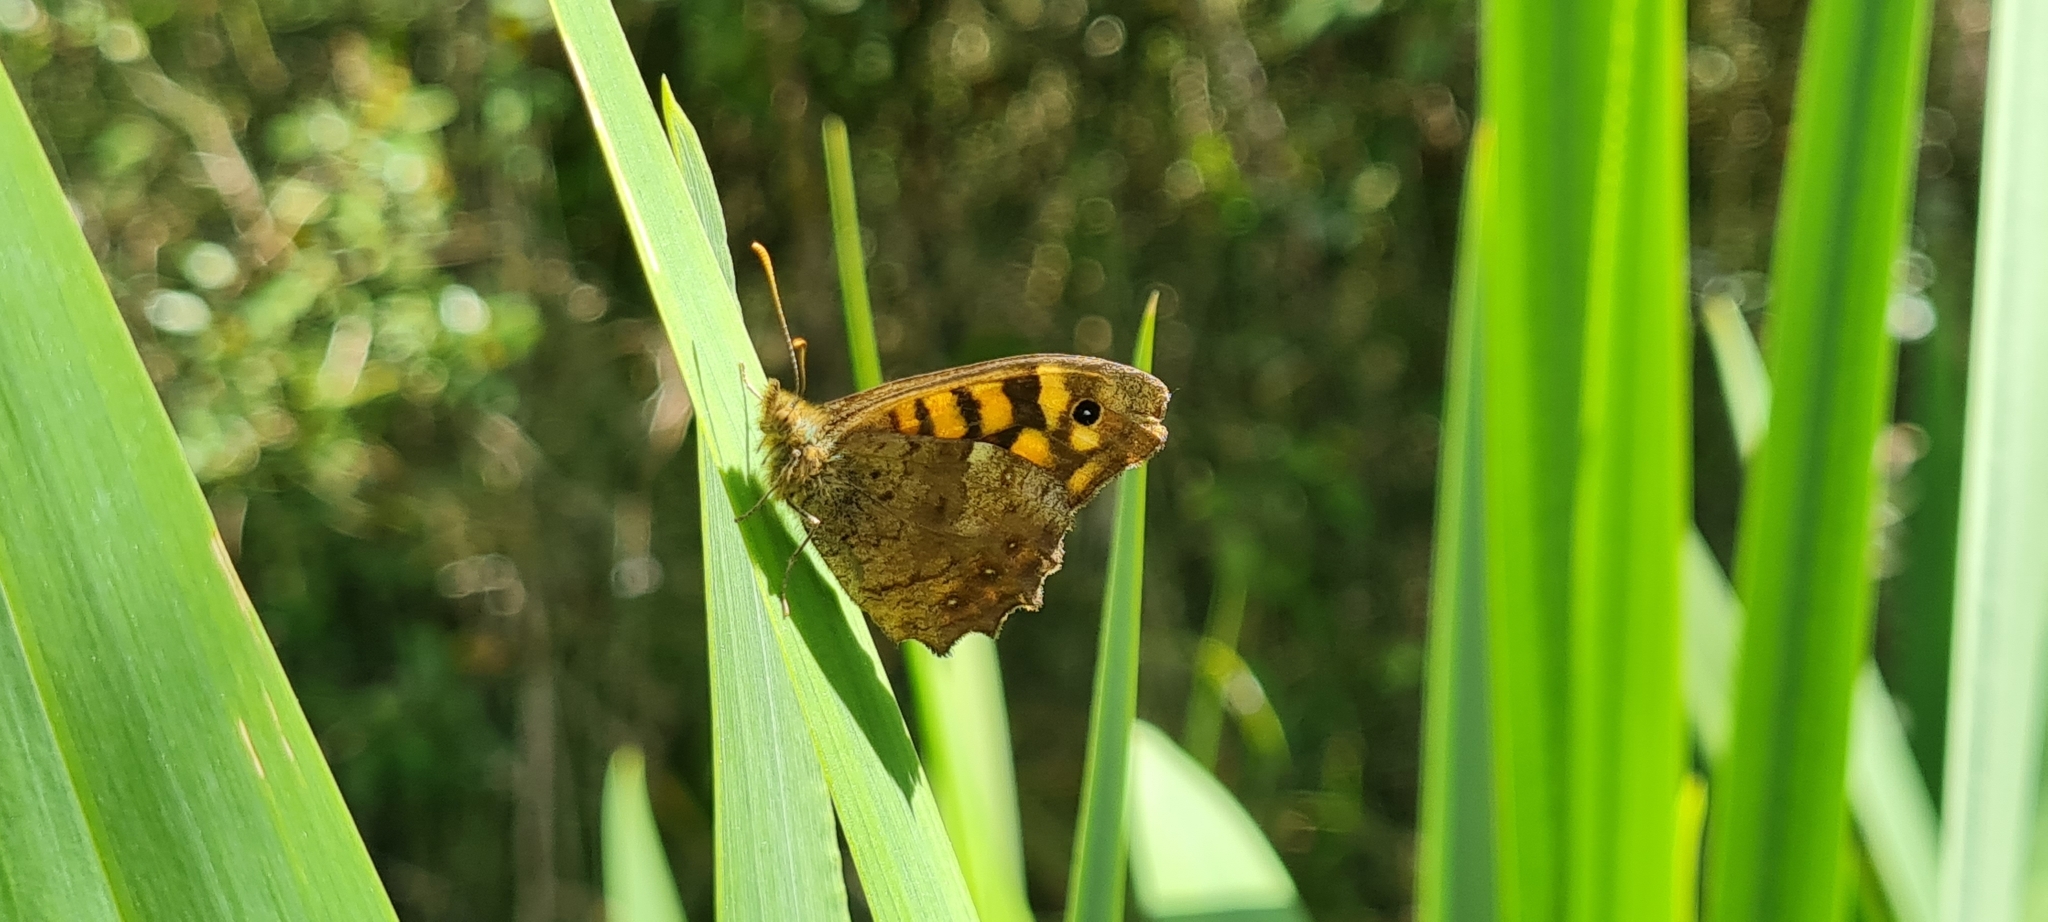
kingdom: Animalia
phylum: Arthropoda
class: Insecta
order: Lepidoptera
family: Nymphalidae
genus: Pararge
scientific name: Pararge aegeria
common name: Speckled wood
